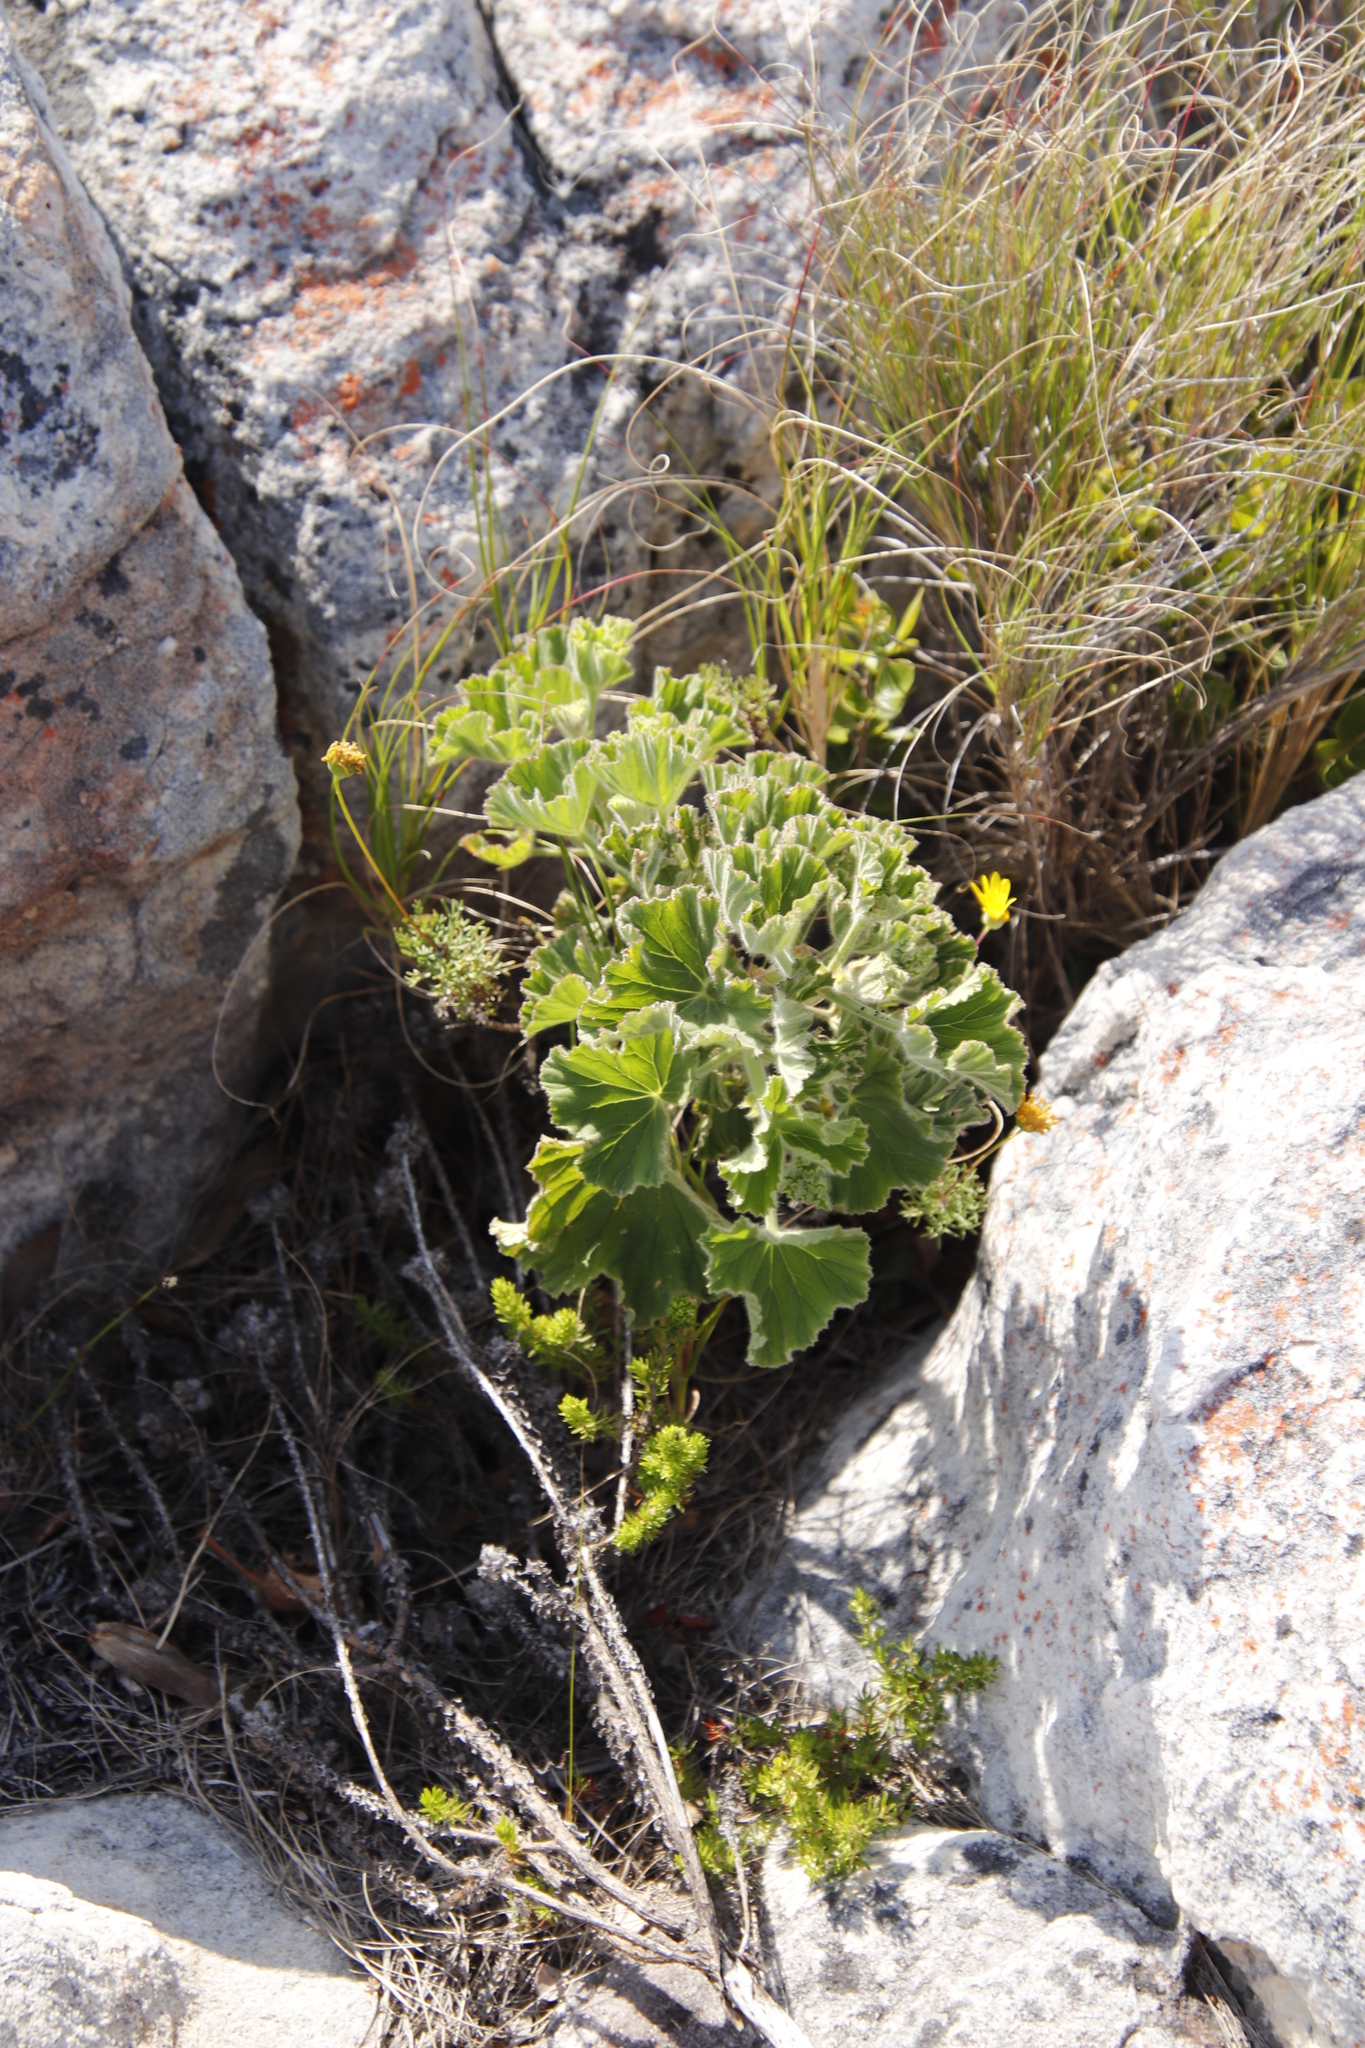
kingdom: Plantae
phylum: Tracheophyta
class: Magnoliopsida
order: Geraniales
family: Geraniaceae
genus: Pelargonium
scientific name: Pelargonium cucullatum
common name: Tree pelargonium
